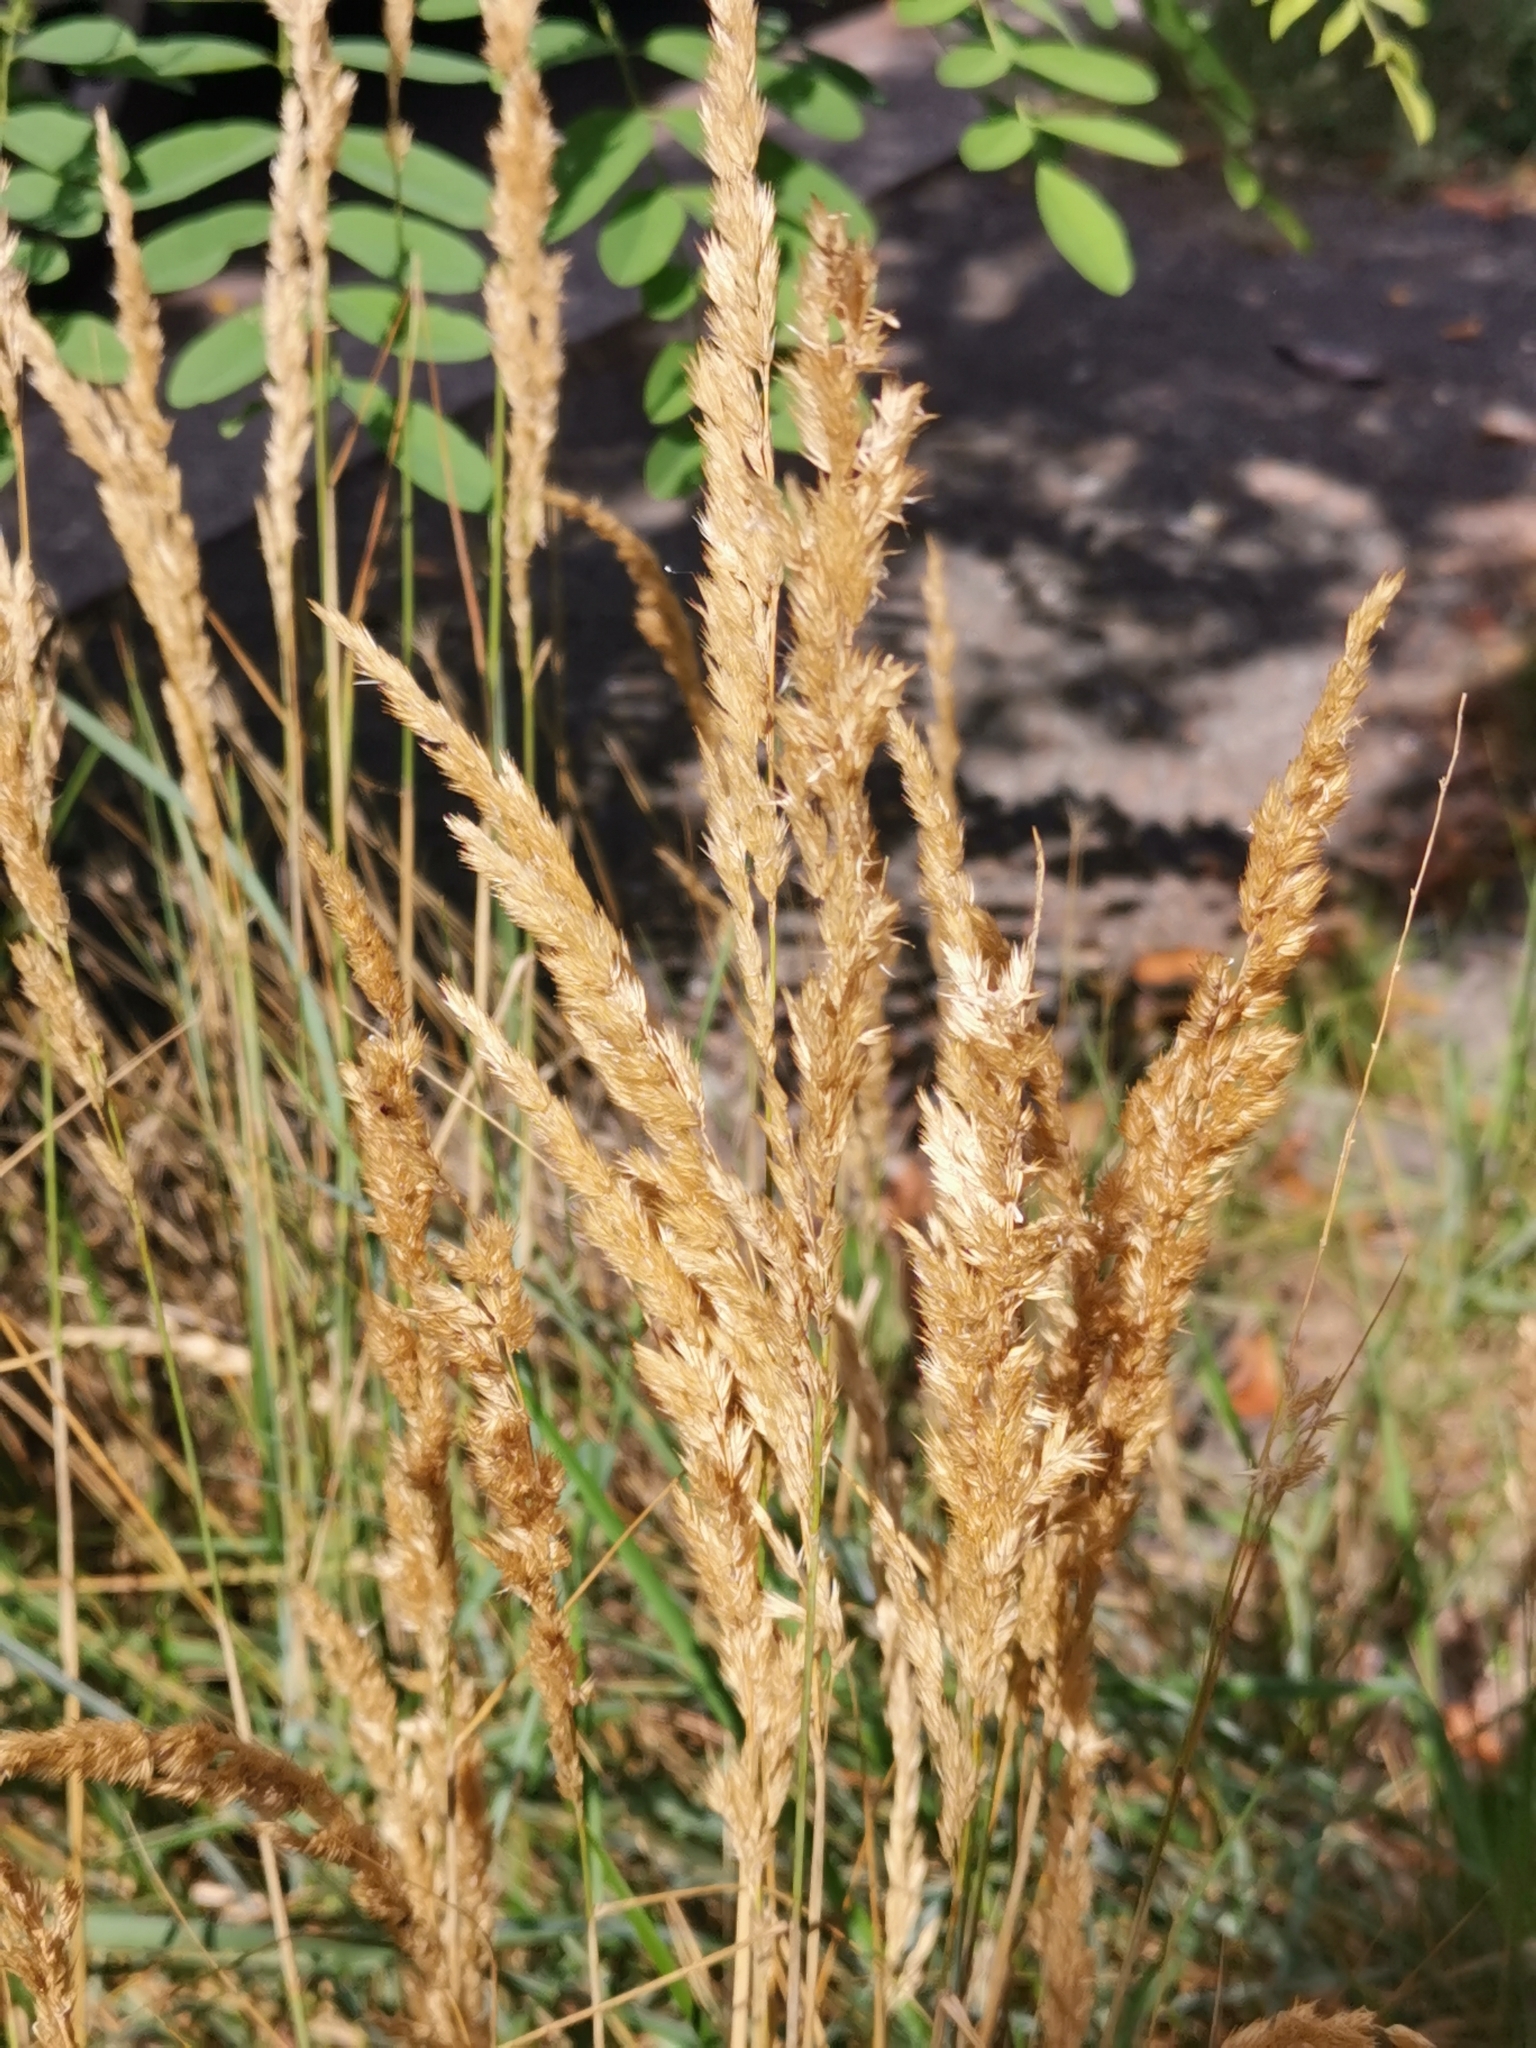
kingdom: Plantae
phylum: Tracheophyta
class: Liliopsida
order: Poales
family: Poaceae
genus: Calamagrostis
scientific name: Calamagrostis epigejos
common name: Wood small-reed
